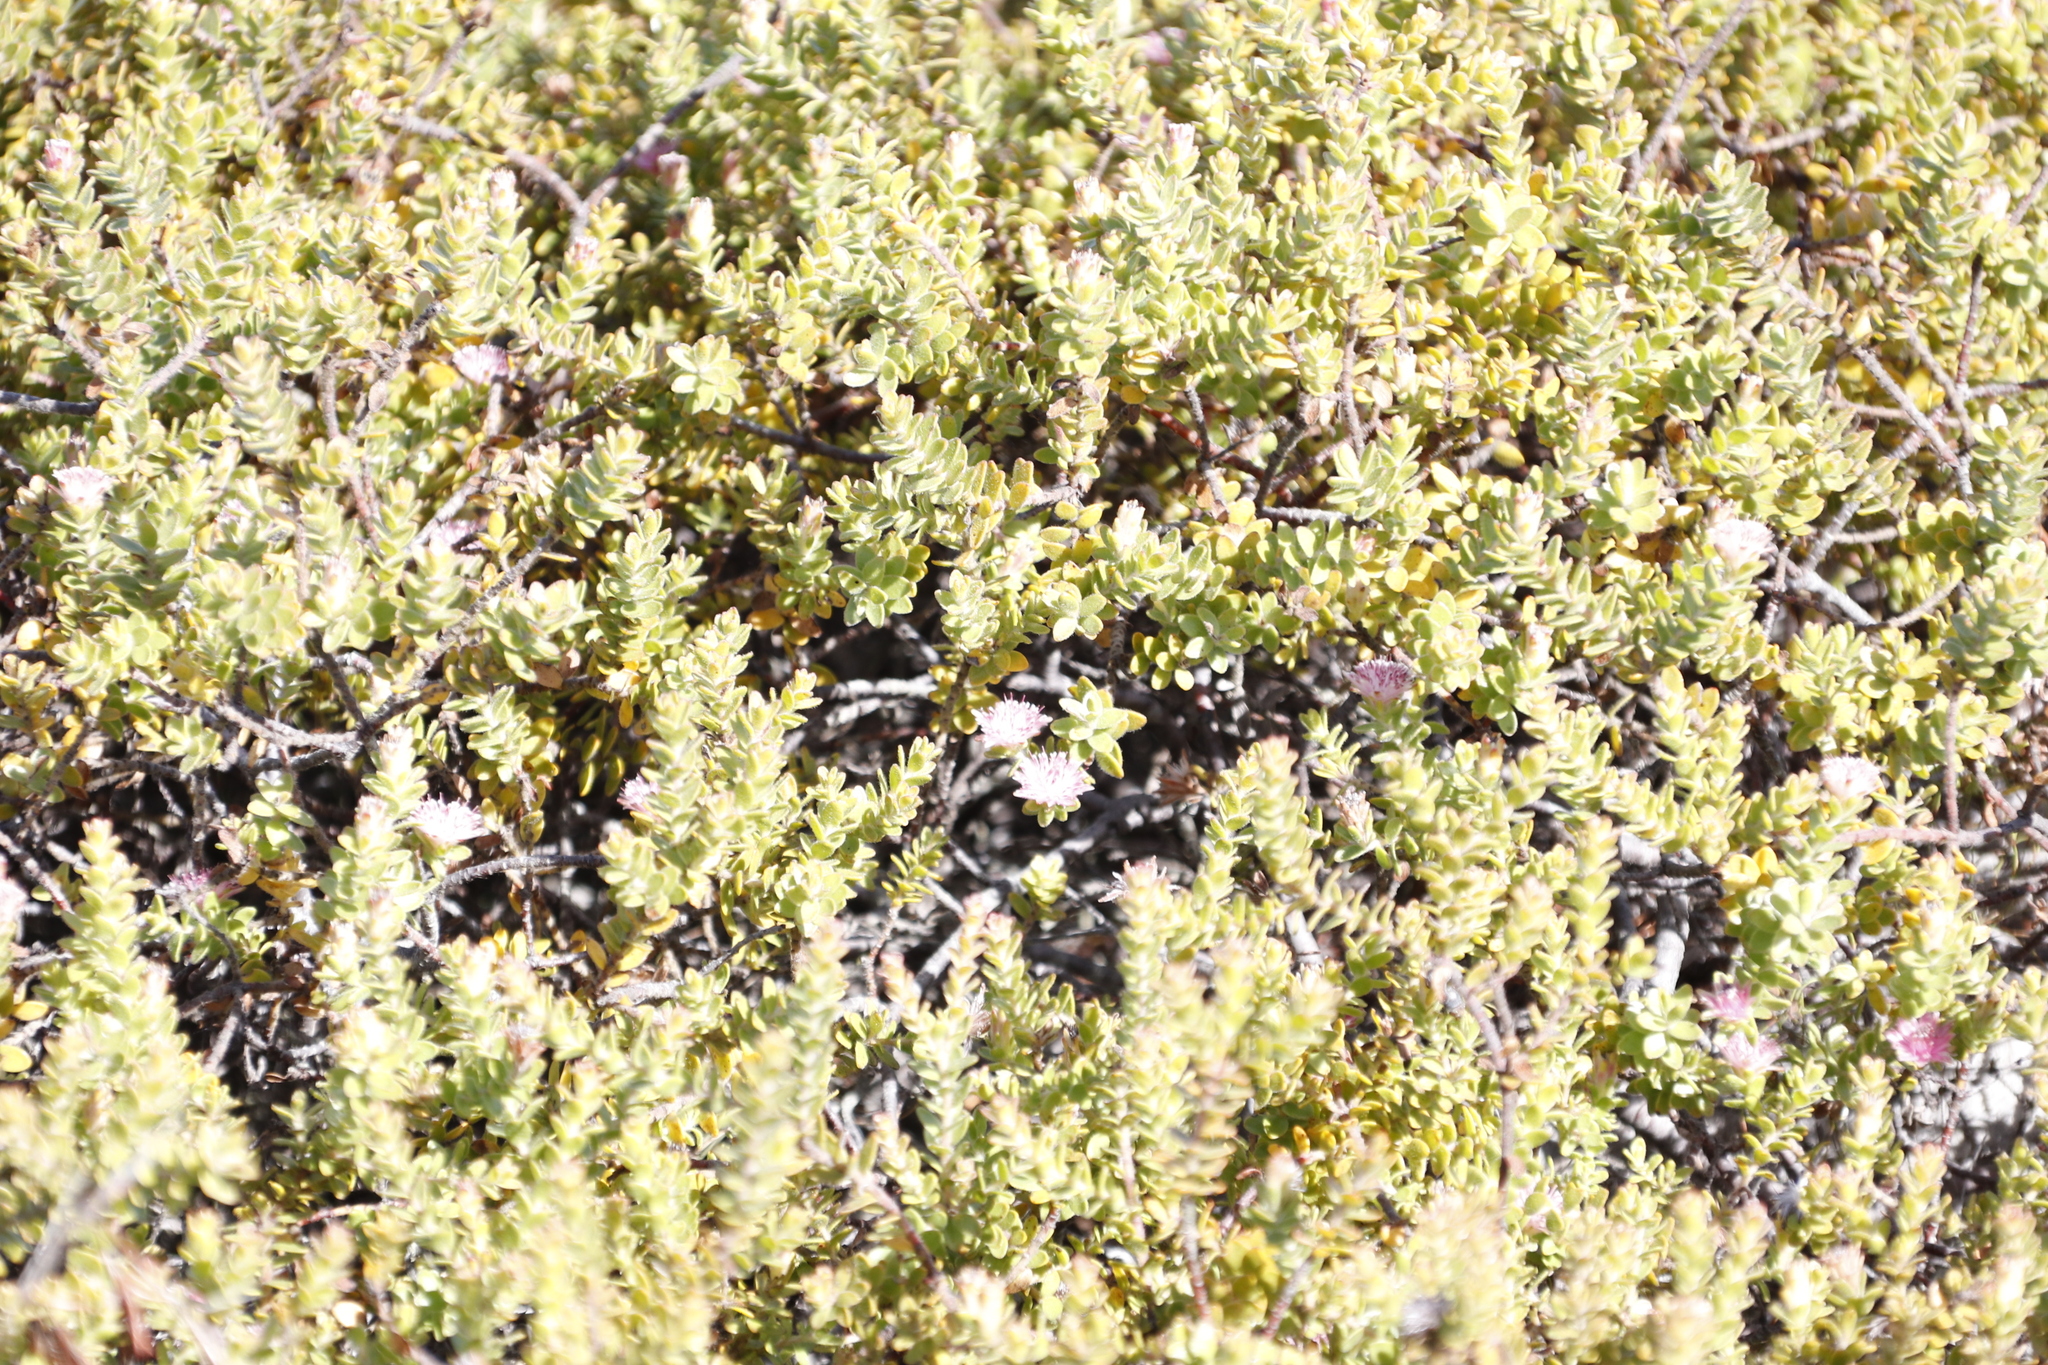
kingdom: Plantae
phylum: Tracheophyta
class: Magnoliopsida
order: Proteales
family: Proteaceae
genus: Diastella
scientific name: Diastella divaricata
